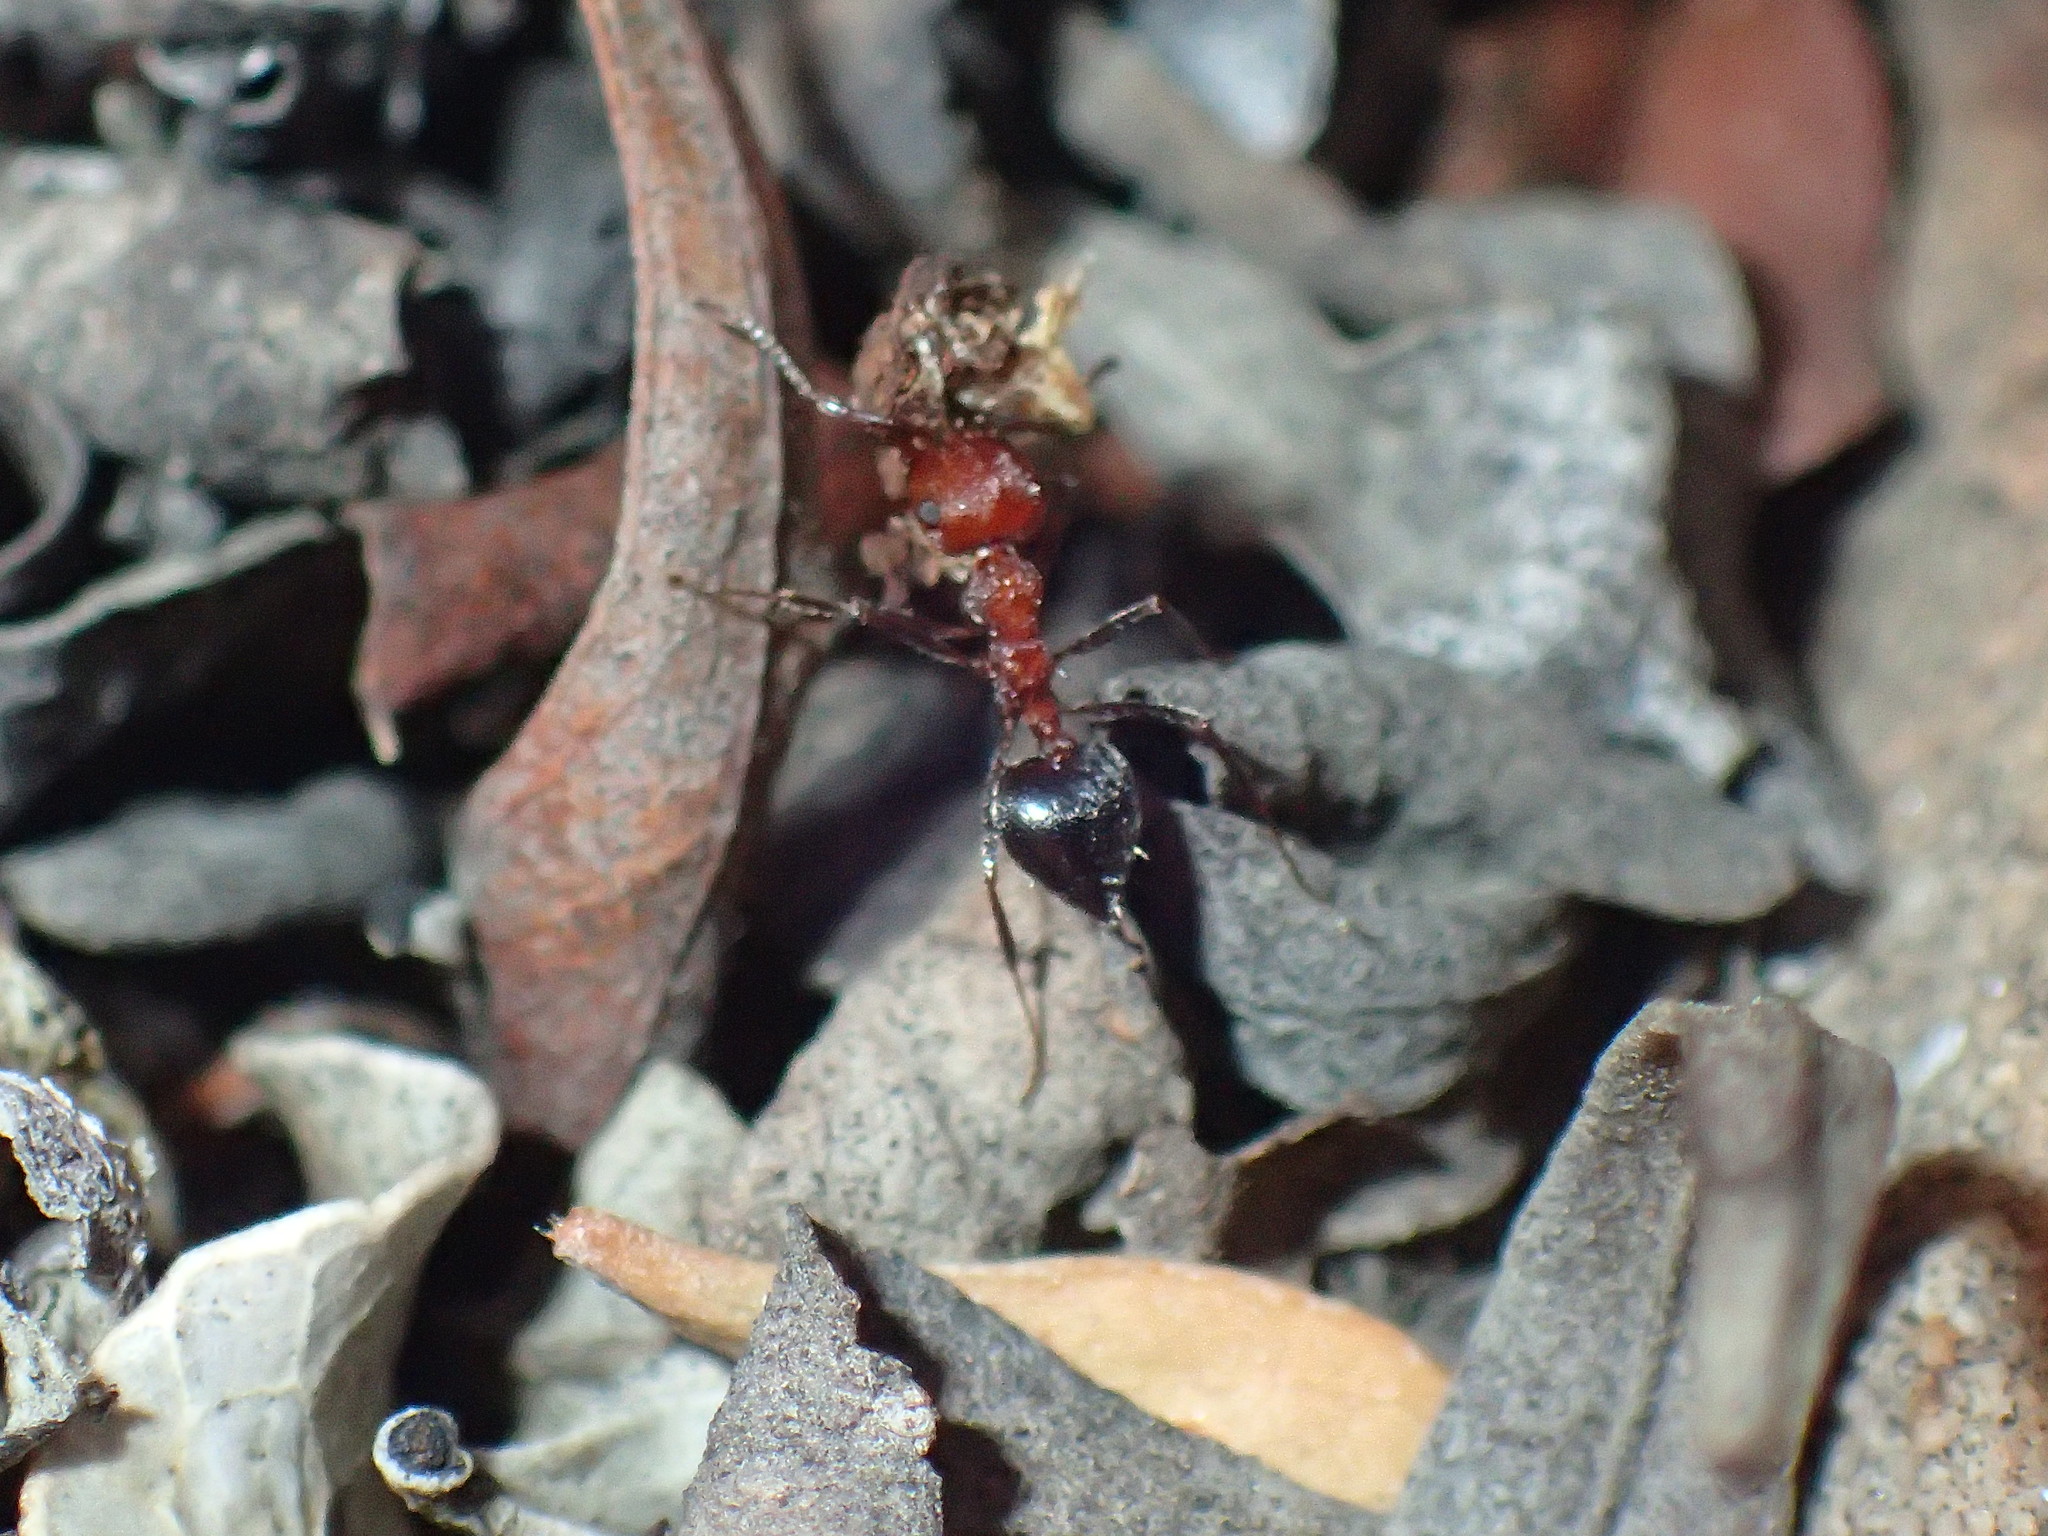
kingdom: Animalia
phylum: Arthropoda
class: Insecta
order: Hymenoptera
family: Formicidae
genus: Crematogaster
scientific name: Crematogaster melanogaster
